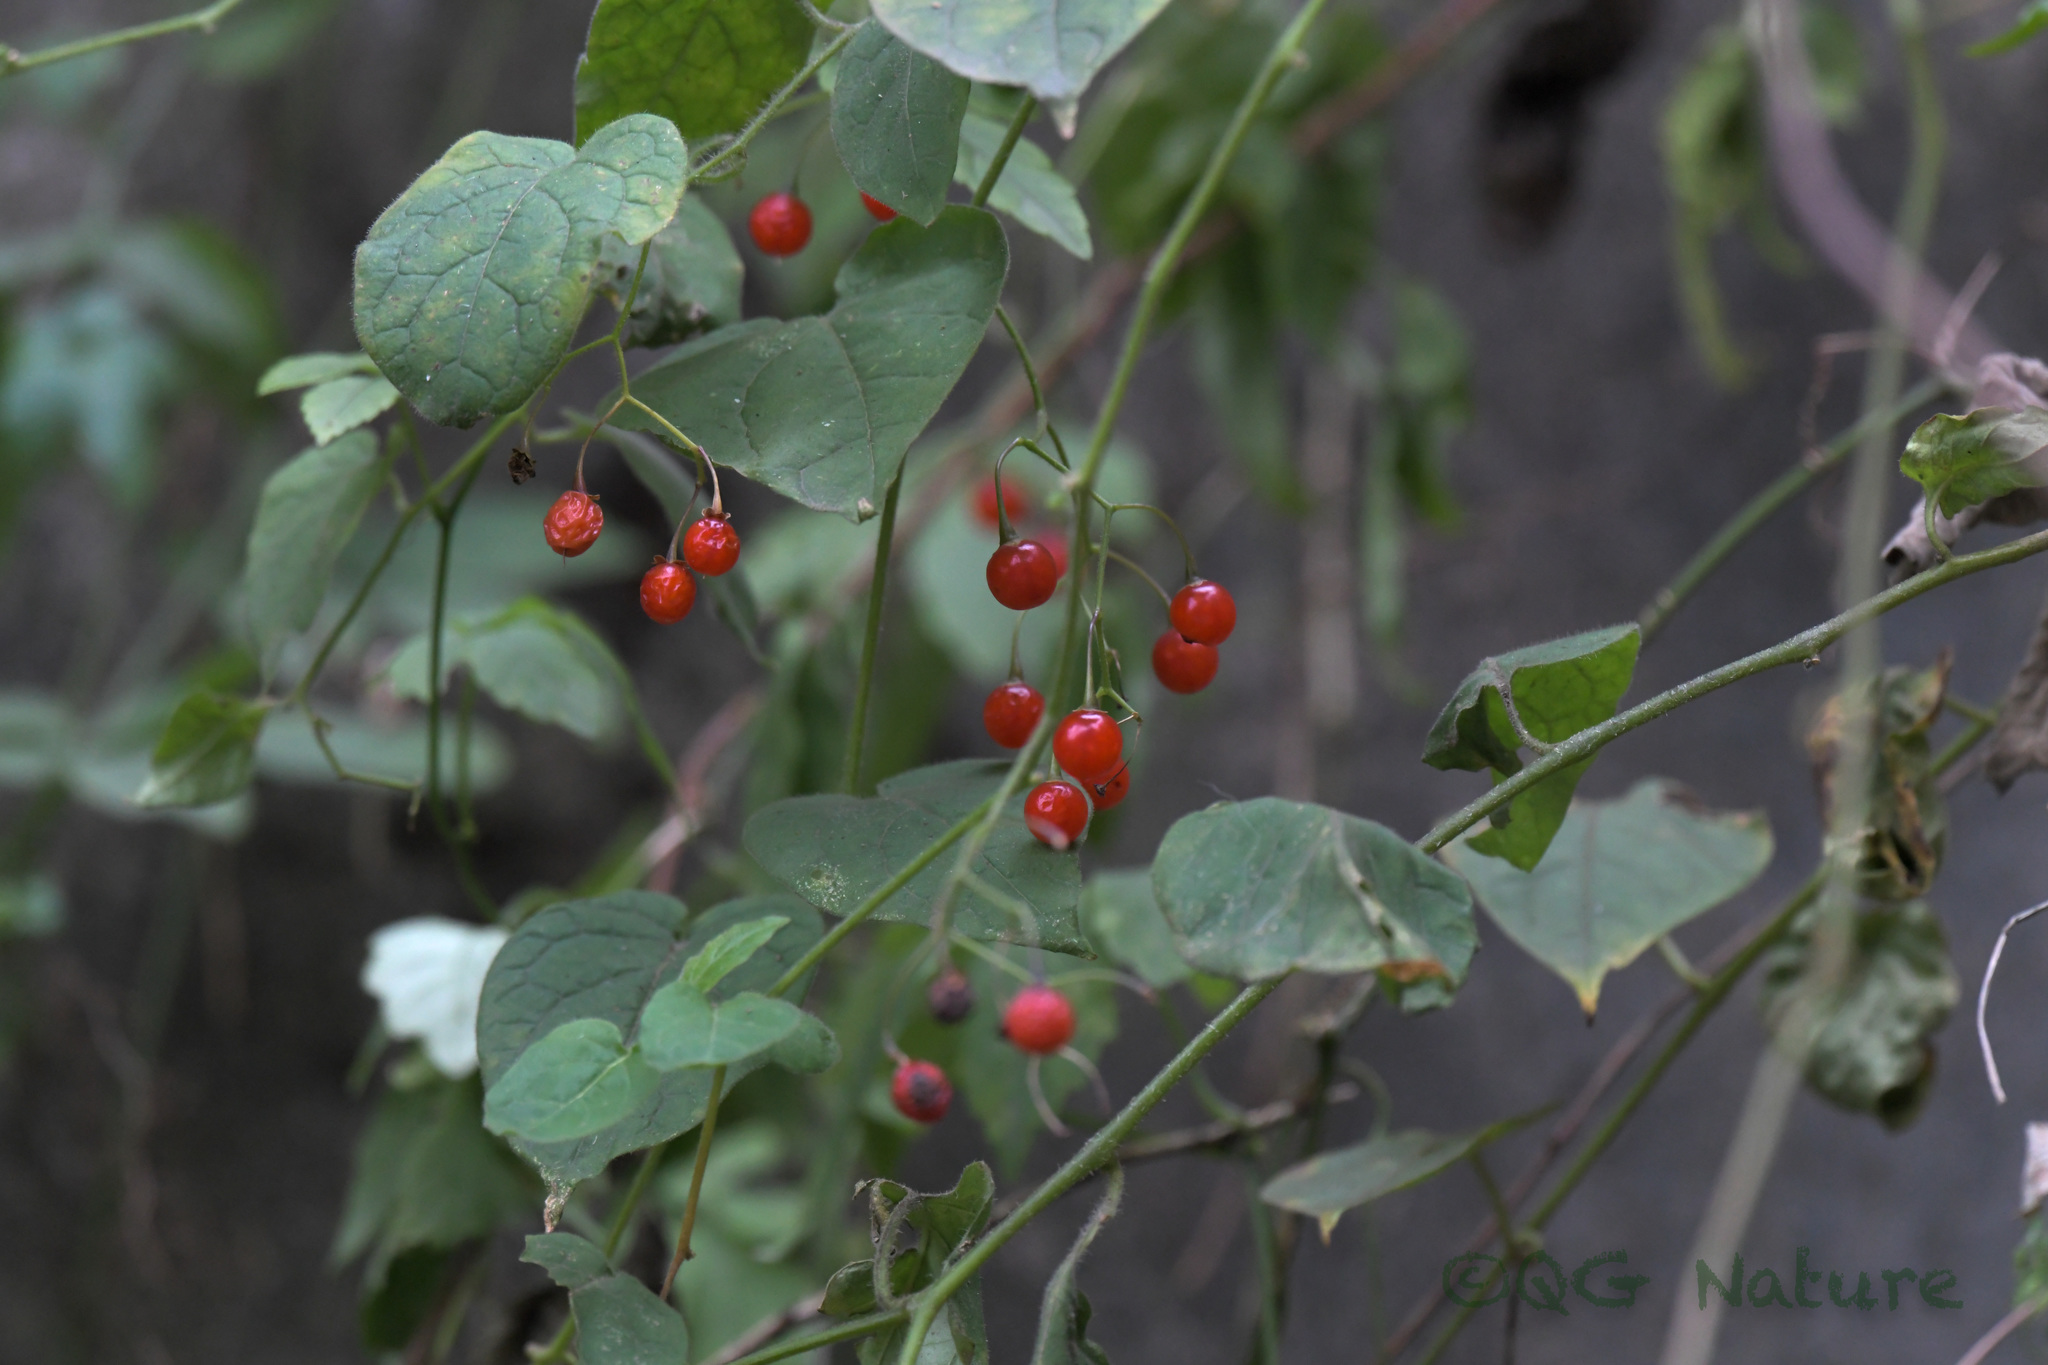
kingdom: Plantae
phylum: Tracheophyta
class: Magnoliopsida
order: Solanales
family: Solanaceae
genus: Solanum
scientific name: Solanum lyratum
